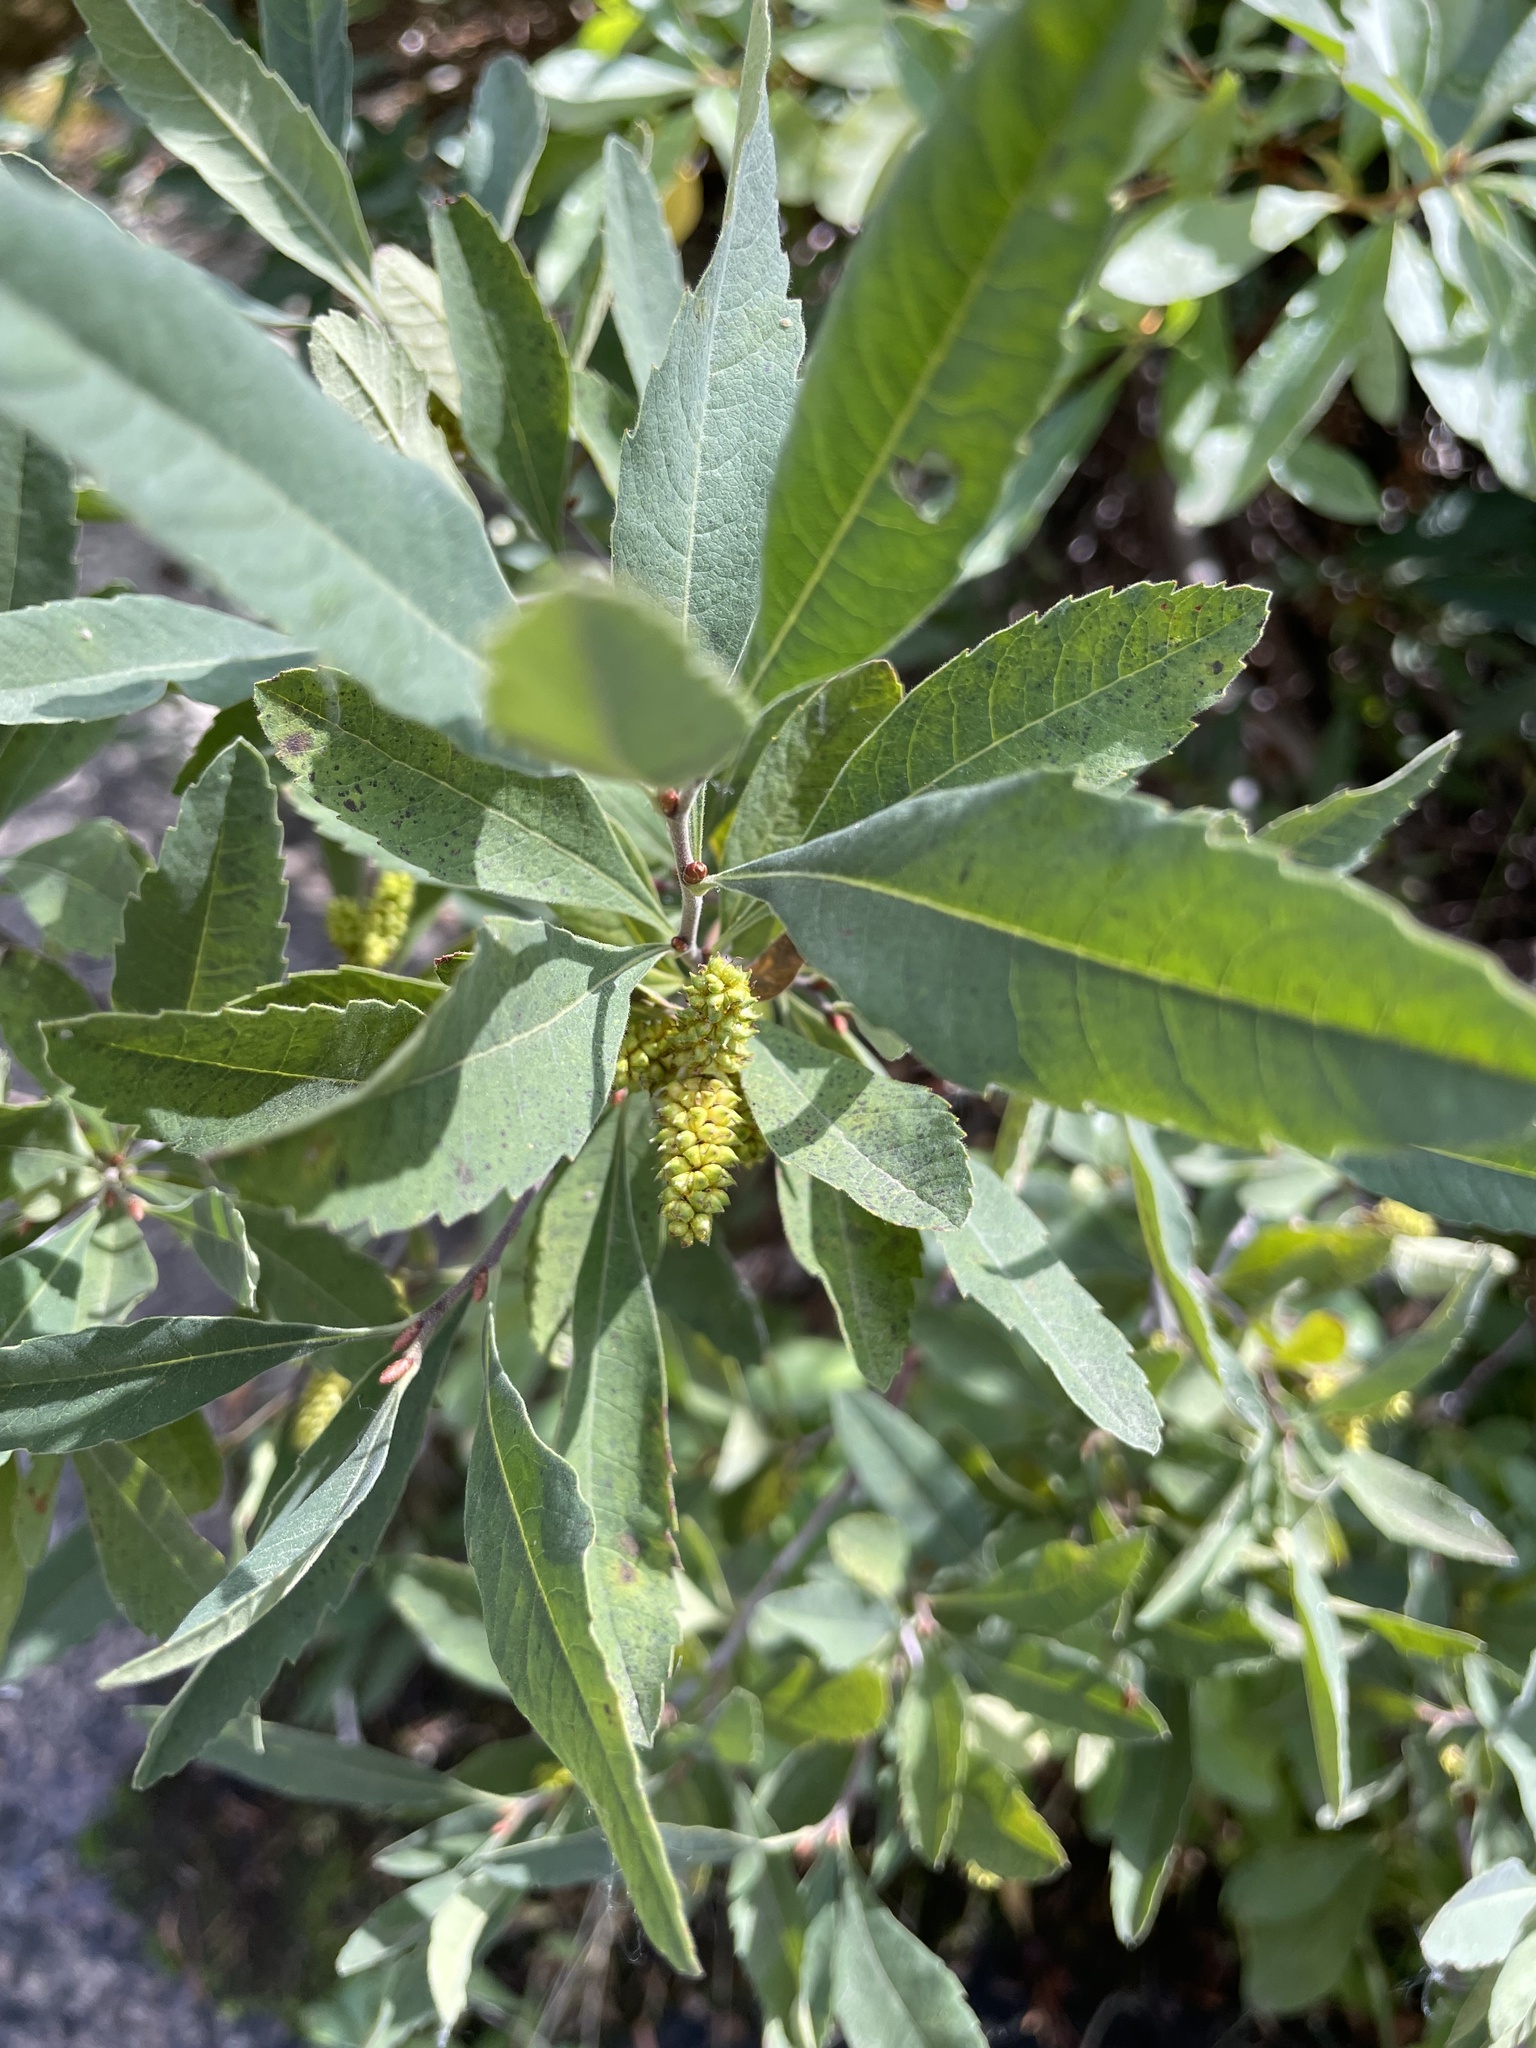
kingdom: Plantae
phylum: Tracheophyta
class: Magnoliopsida
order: Fagales
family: Myricaceae
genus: Myrica
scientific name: Myrica hartwegii
